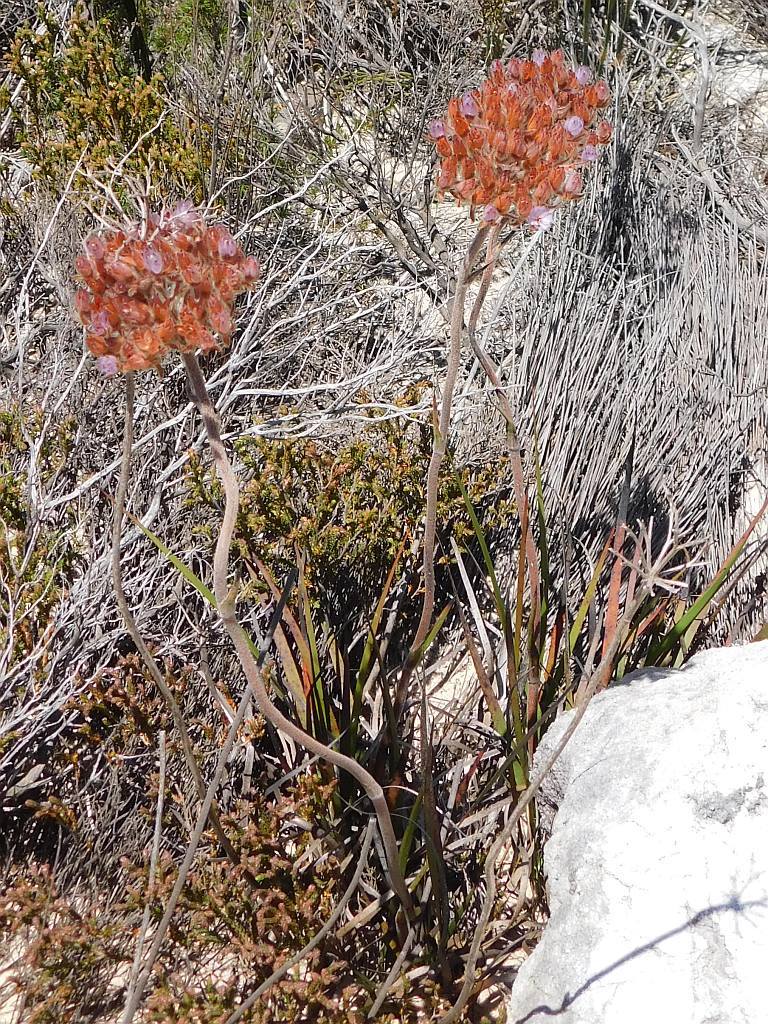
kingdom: Plantae
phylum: Tracheophyta
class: Liliopsida
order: Commelinales
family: Haemodoraceae
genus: Dilatris
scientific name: Dilatris pillansii
